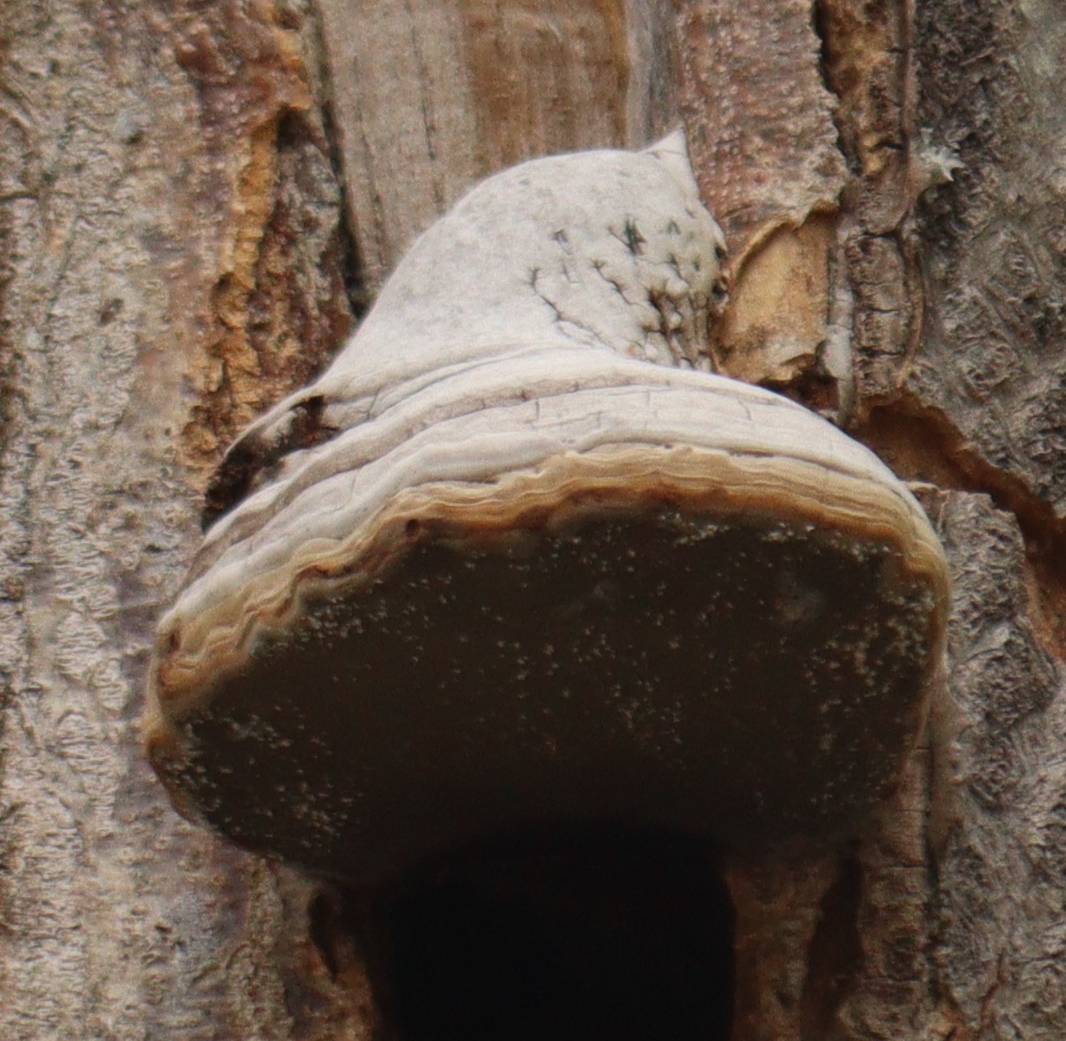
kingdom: Fungi
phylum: Basidiomycota
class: Agaricomycetes
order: Polyporales
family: Polyporaceae
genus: Fomes
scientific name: Fomes fomentarius
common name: Hoof fungus
